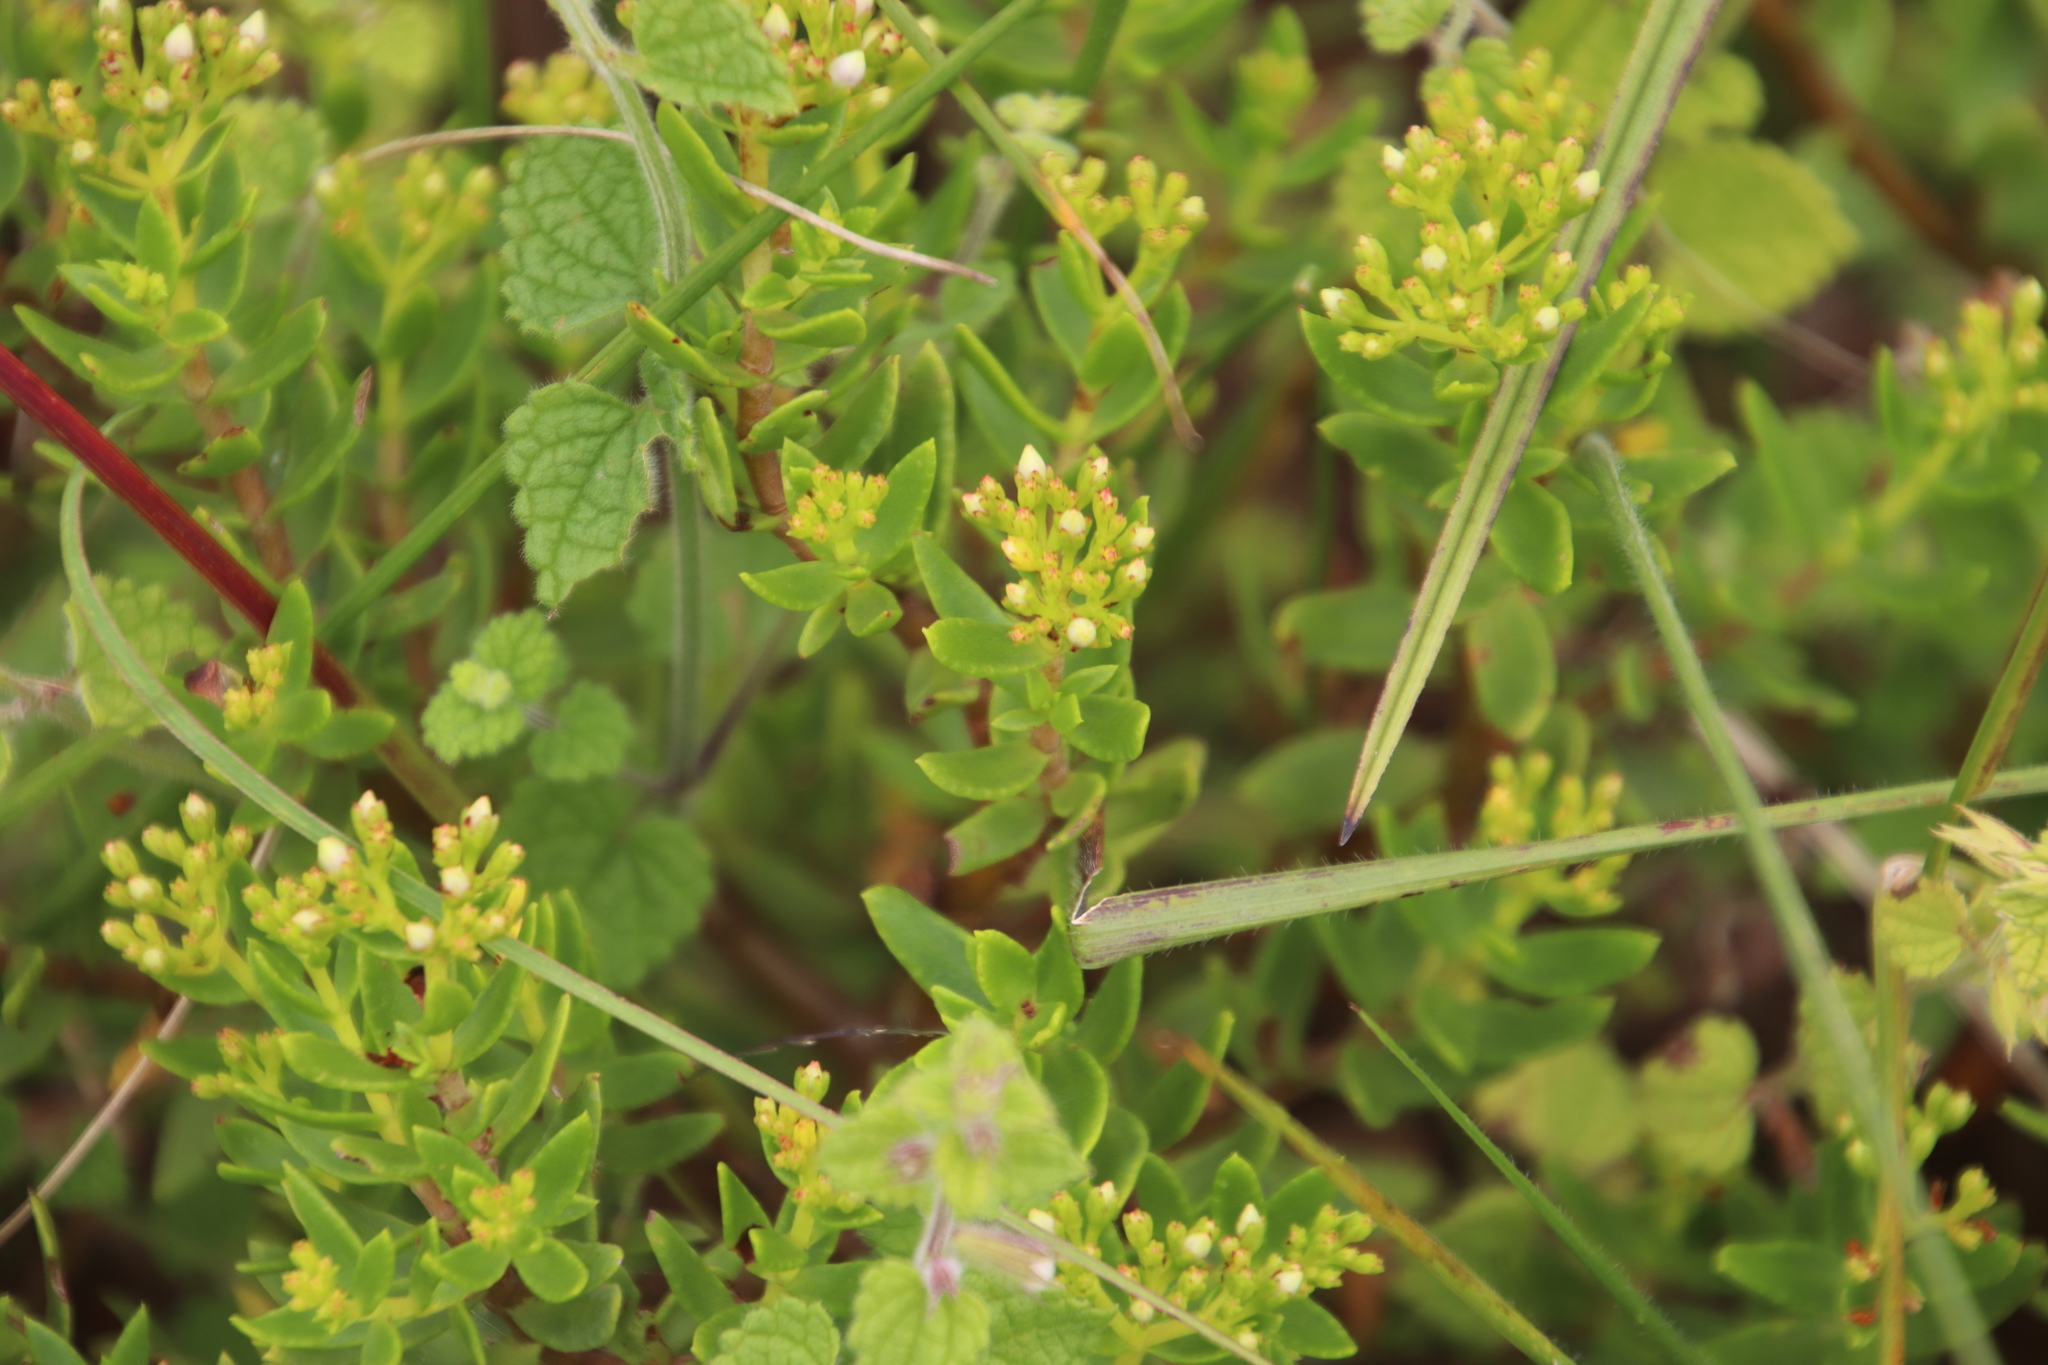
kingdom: Plantae
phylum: Tracheophyta
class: Magnoliopsida
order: Saxifragales
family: Crassulaceae
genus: Crassula
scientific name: Crassula sarcocaulis
